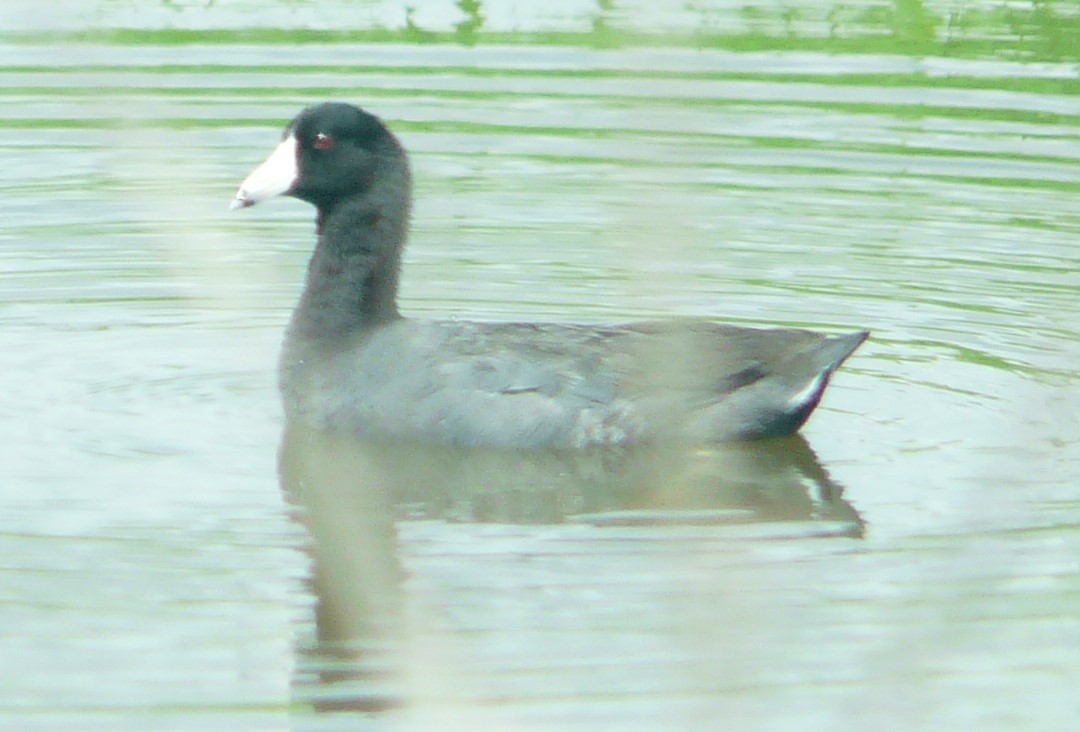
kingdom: Animalia
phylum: Chordata
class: Aves
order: Gruiformes
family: Rallidae
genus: Fulica
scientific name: Fulica americana
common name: American coot
